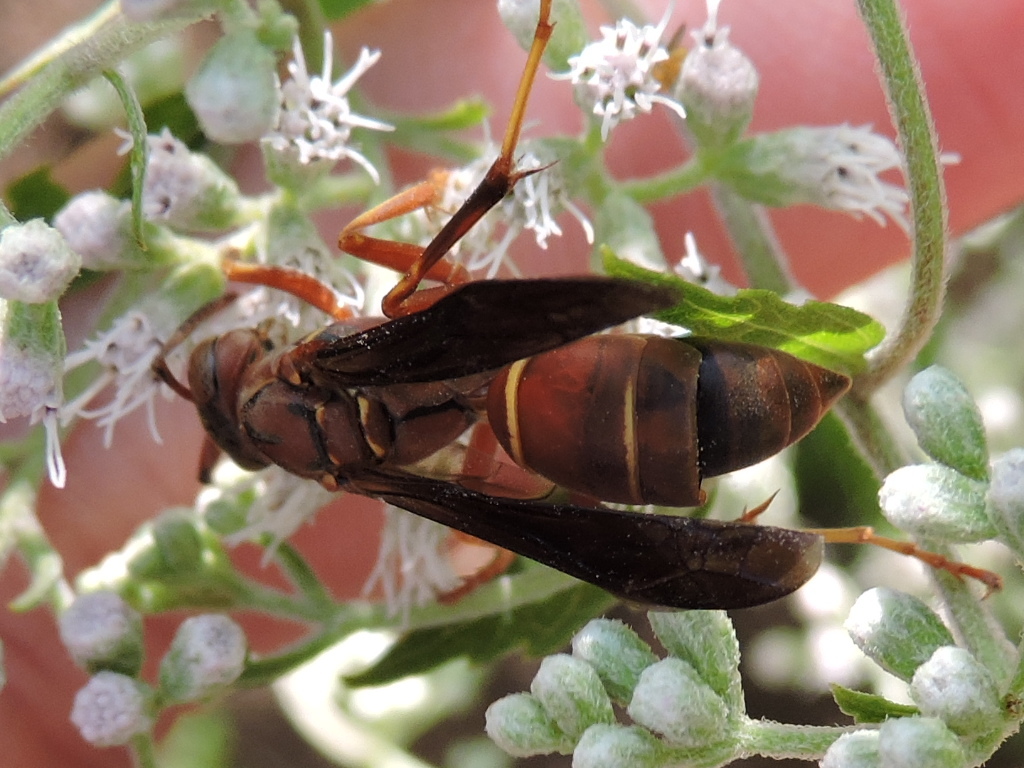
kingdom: Animalia
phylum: Arthropoda
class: Insecta
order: Hymenoptera
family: Eumenidae
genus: Polistes
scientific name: Polistes fuscatus
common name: Dark paper wasp
